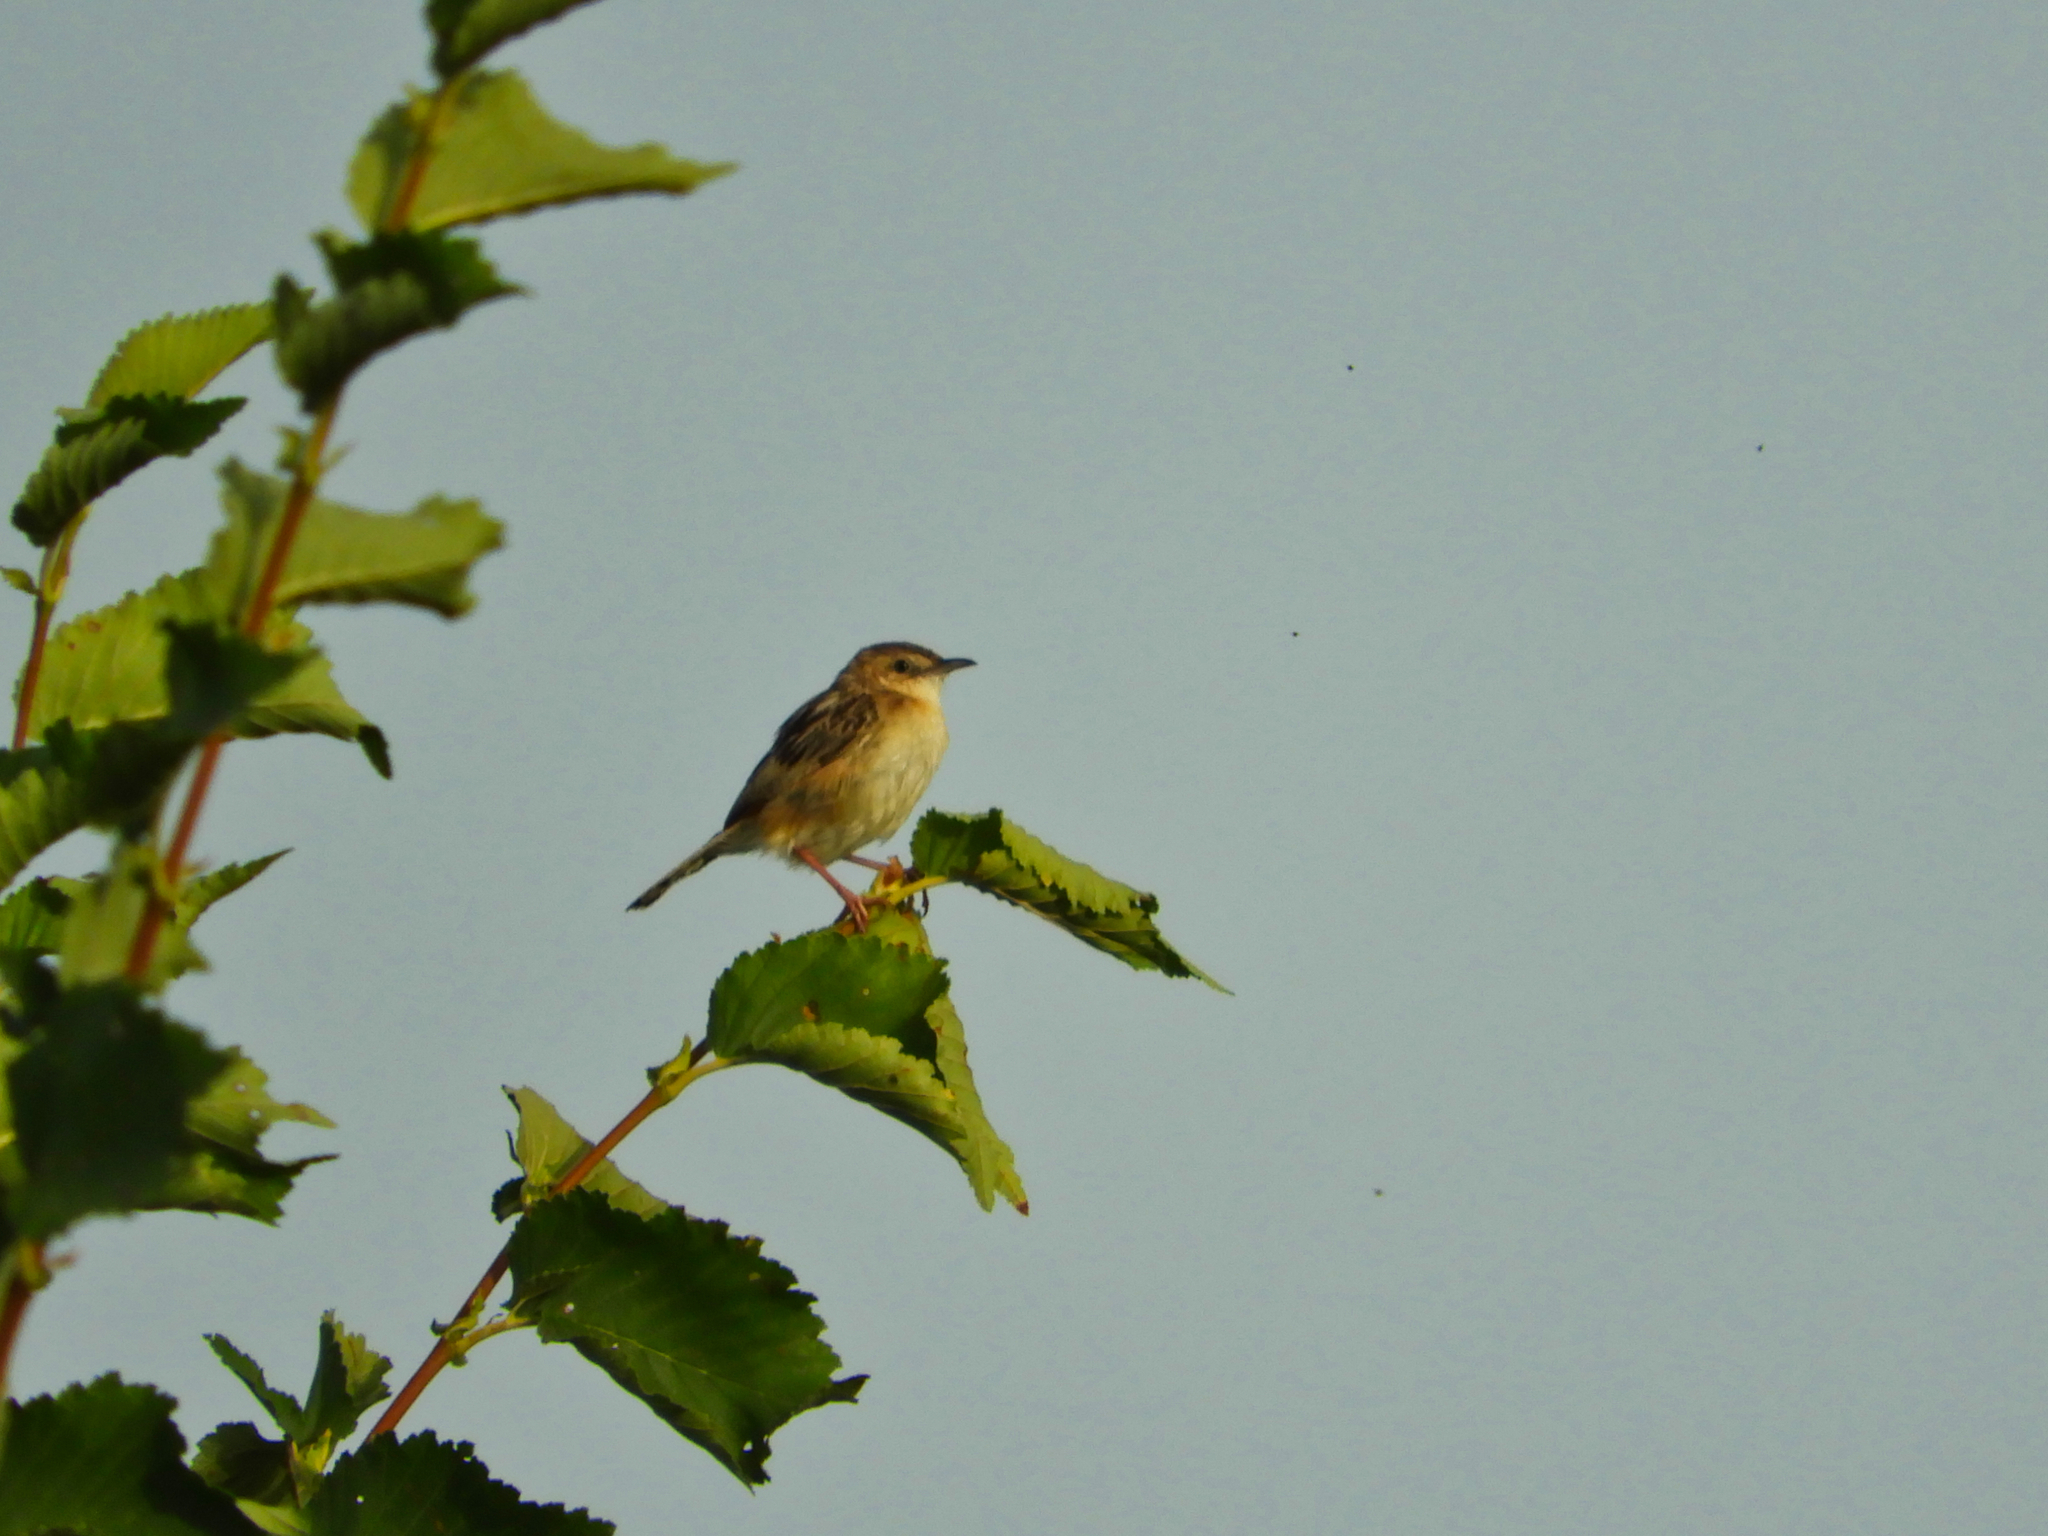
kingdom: Animalia
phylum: Chordata
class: Aves
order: Passeriformes
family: Cisticolidae
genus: Cisticola
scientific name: Cisticola juncidis
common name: Zitting cisticola
